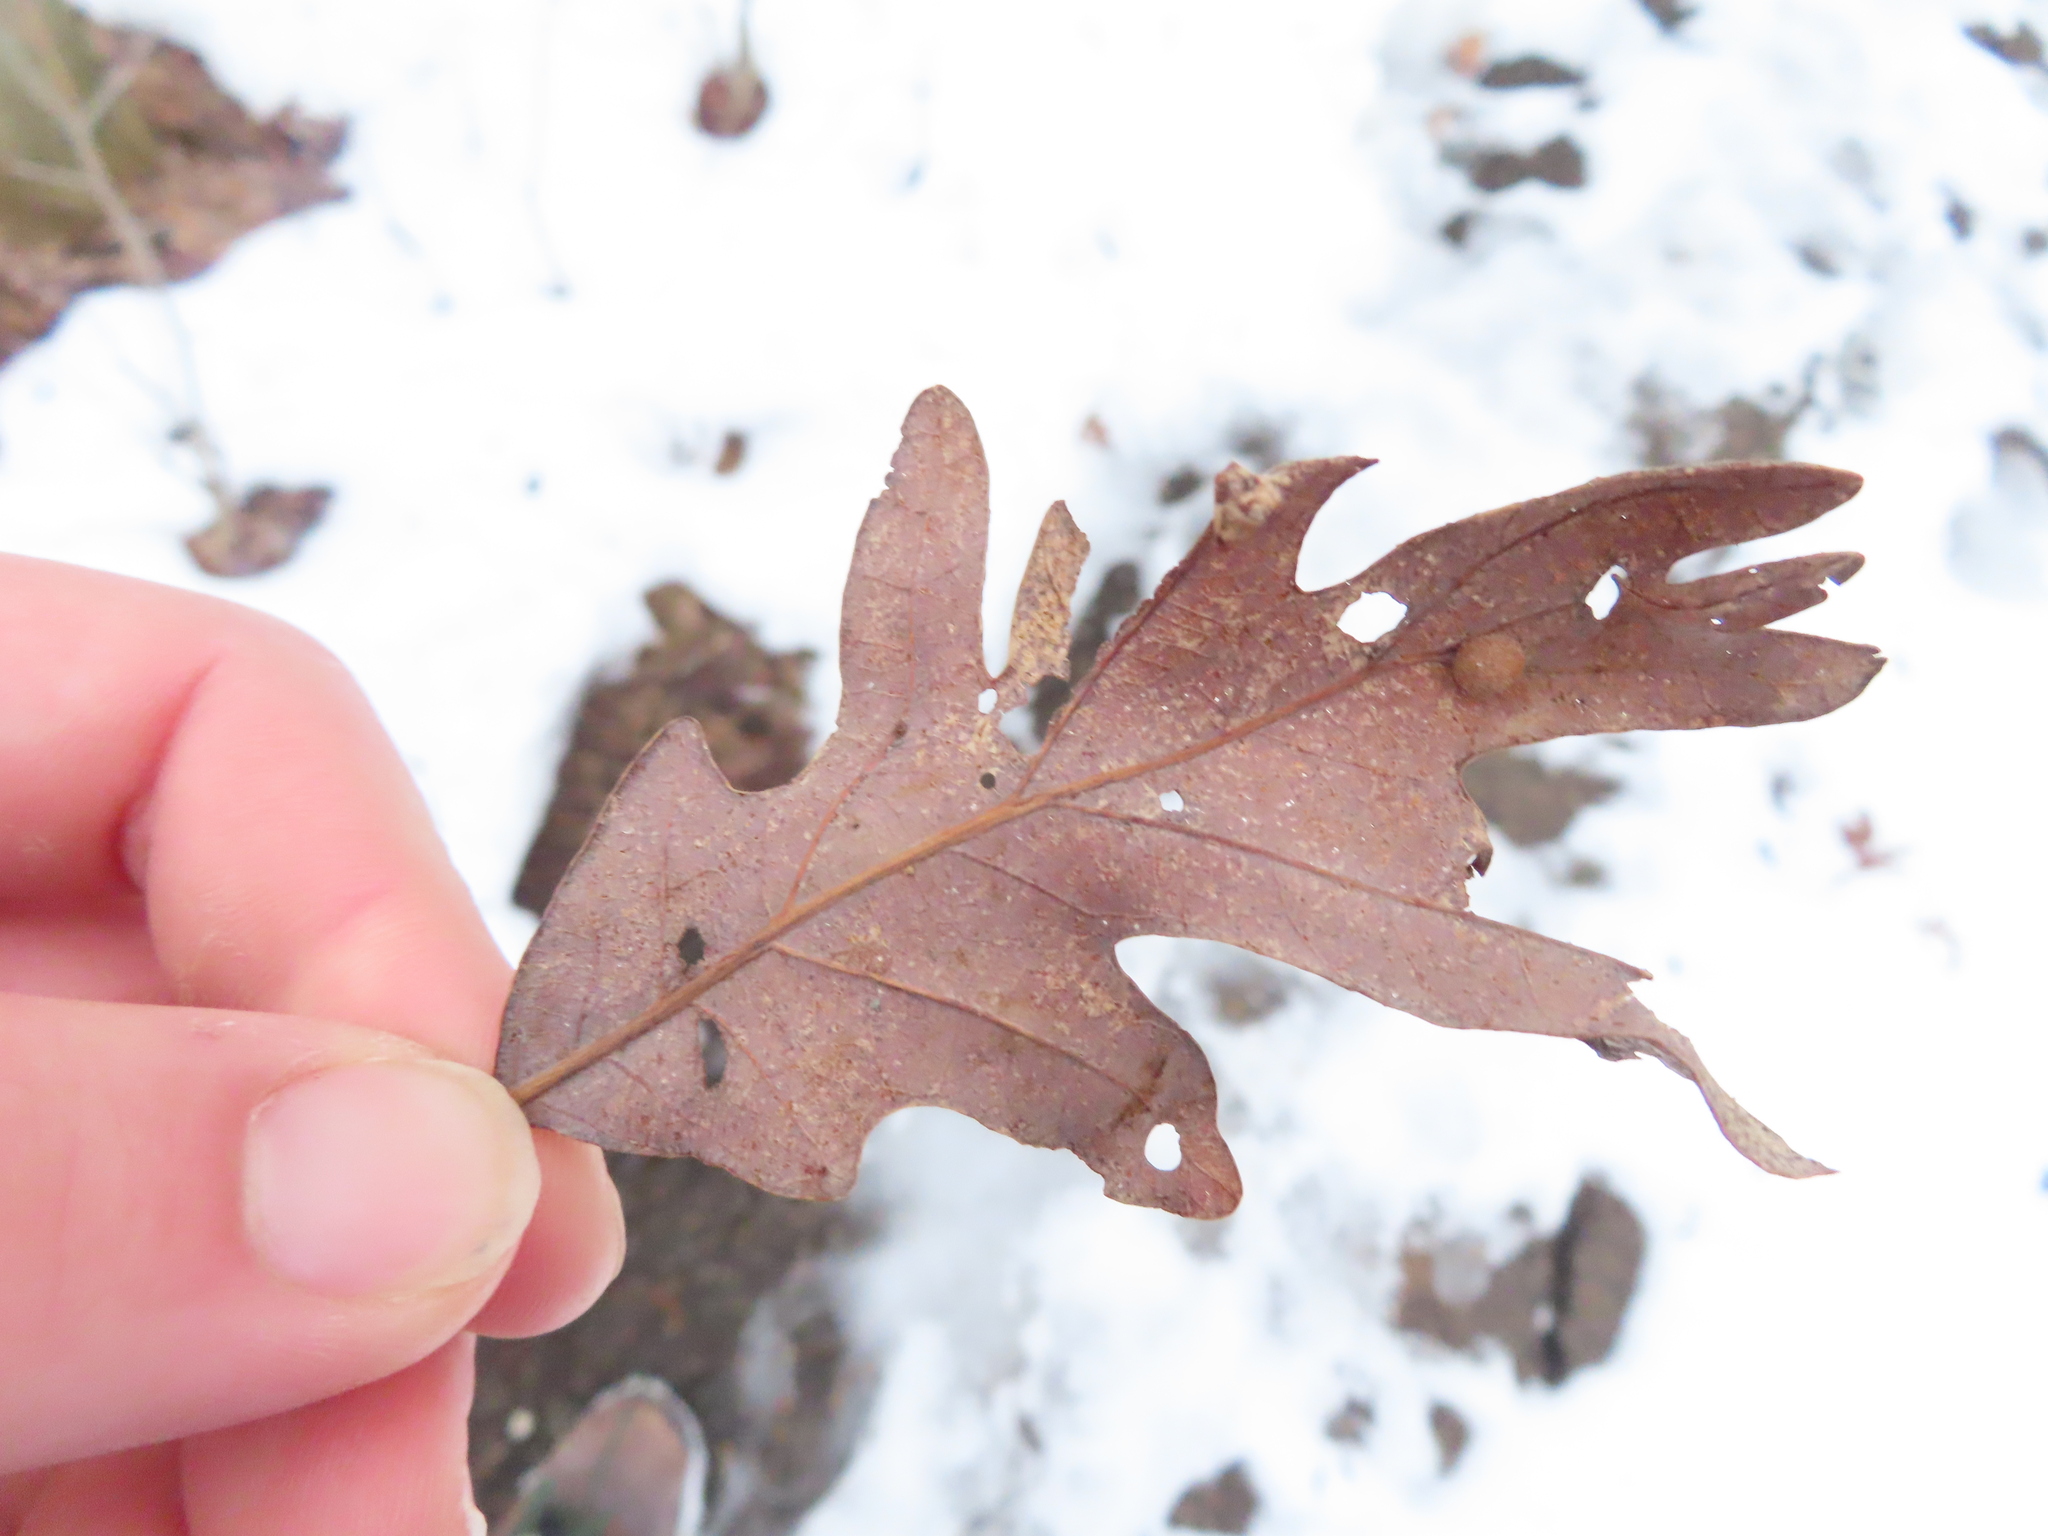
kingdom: Plantae
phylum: Tracheophyta
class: Magnoliopsida
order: Fagales
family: Fagaceae
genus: Quercus
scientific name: Quercus alba
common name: White oak
